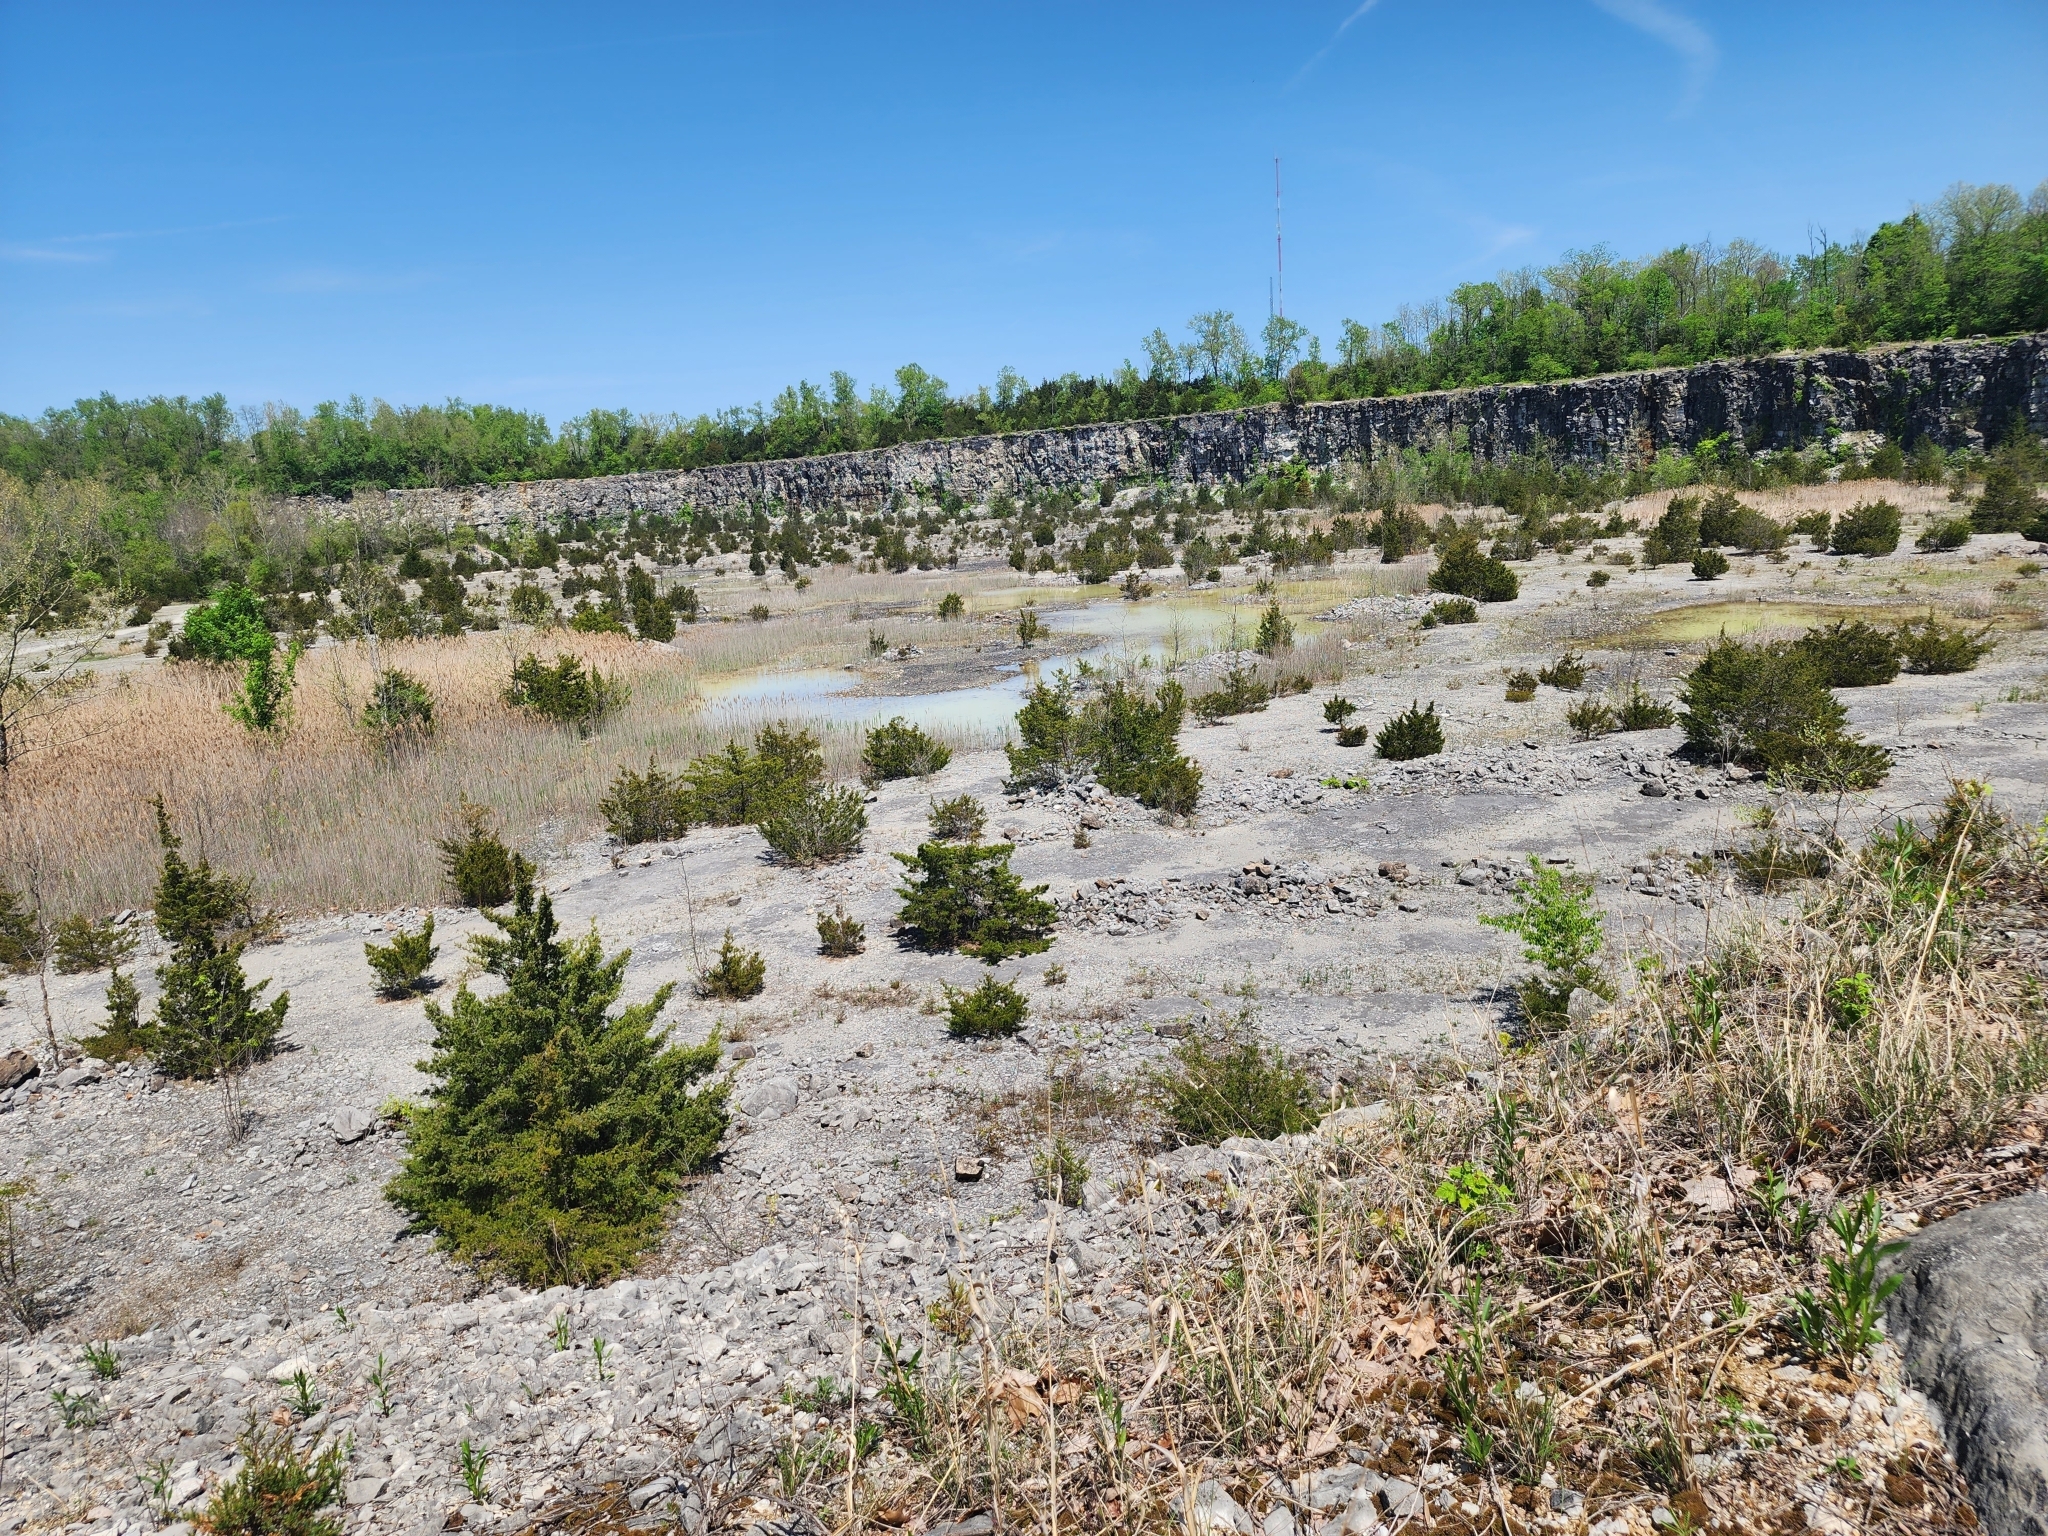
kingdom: Plantae
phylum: Tracheophyta
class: Pinopsida
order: Pinales
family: Cupressaceae
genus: Juniperus
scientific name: Juniperus virginiana
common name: Red juniper
